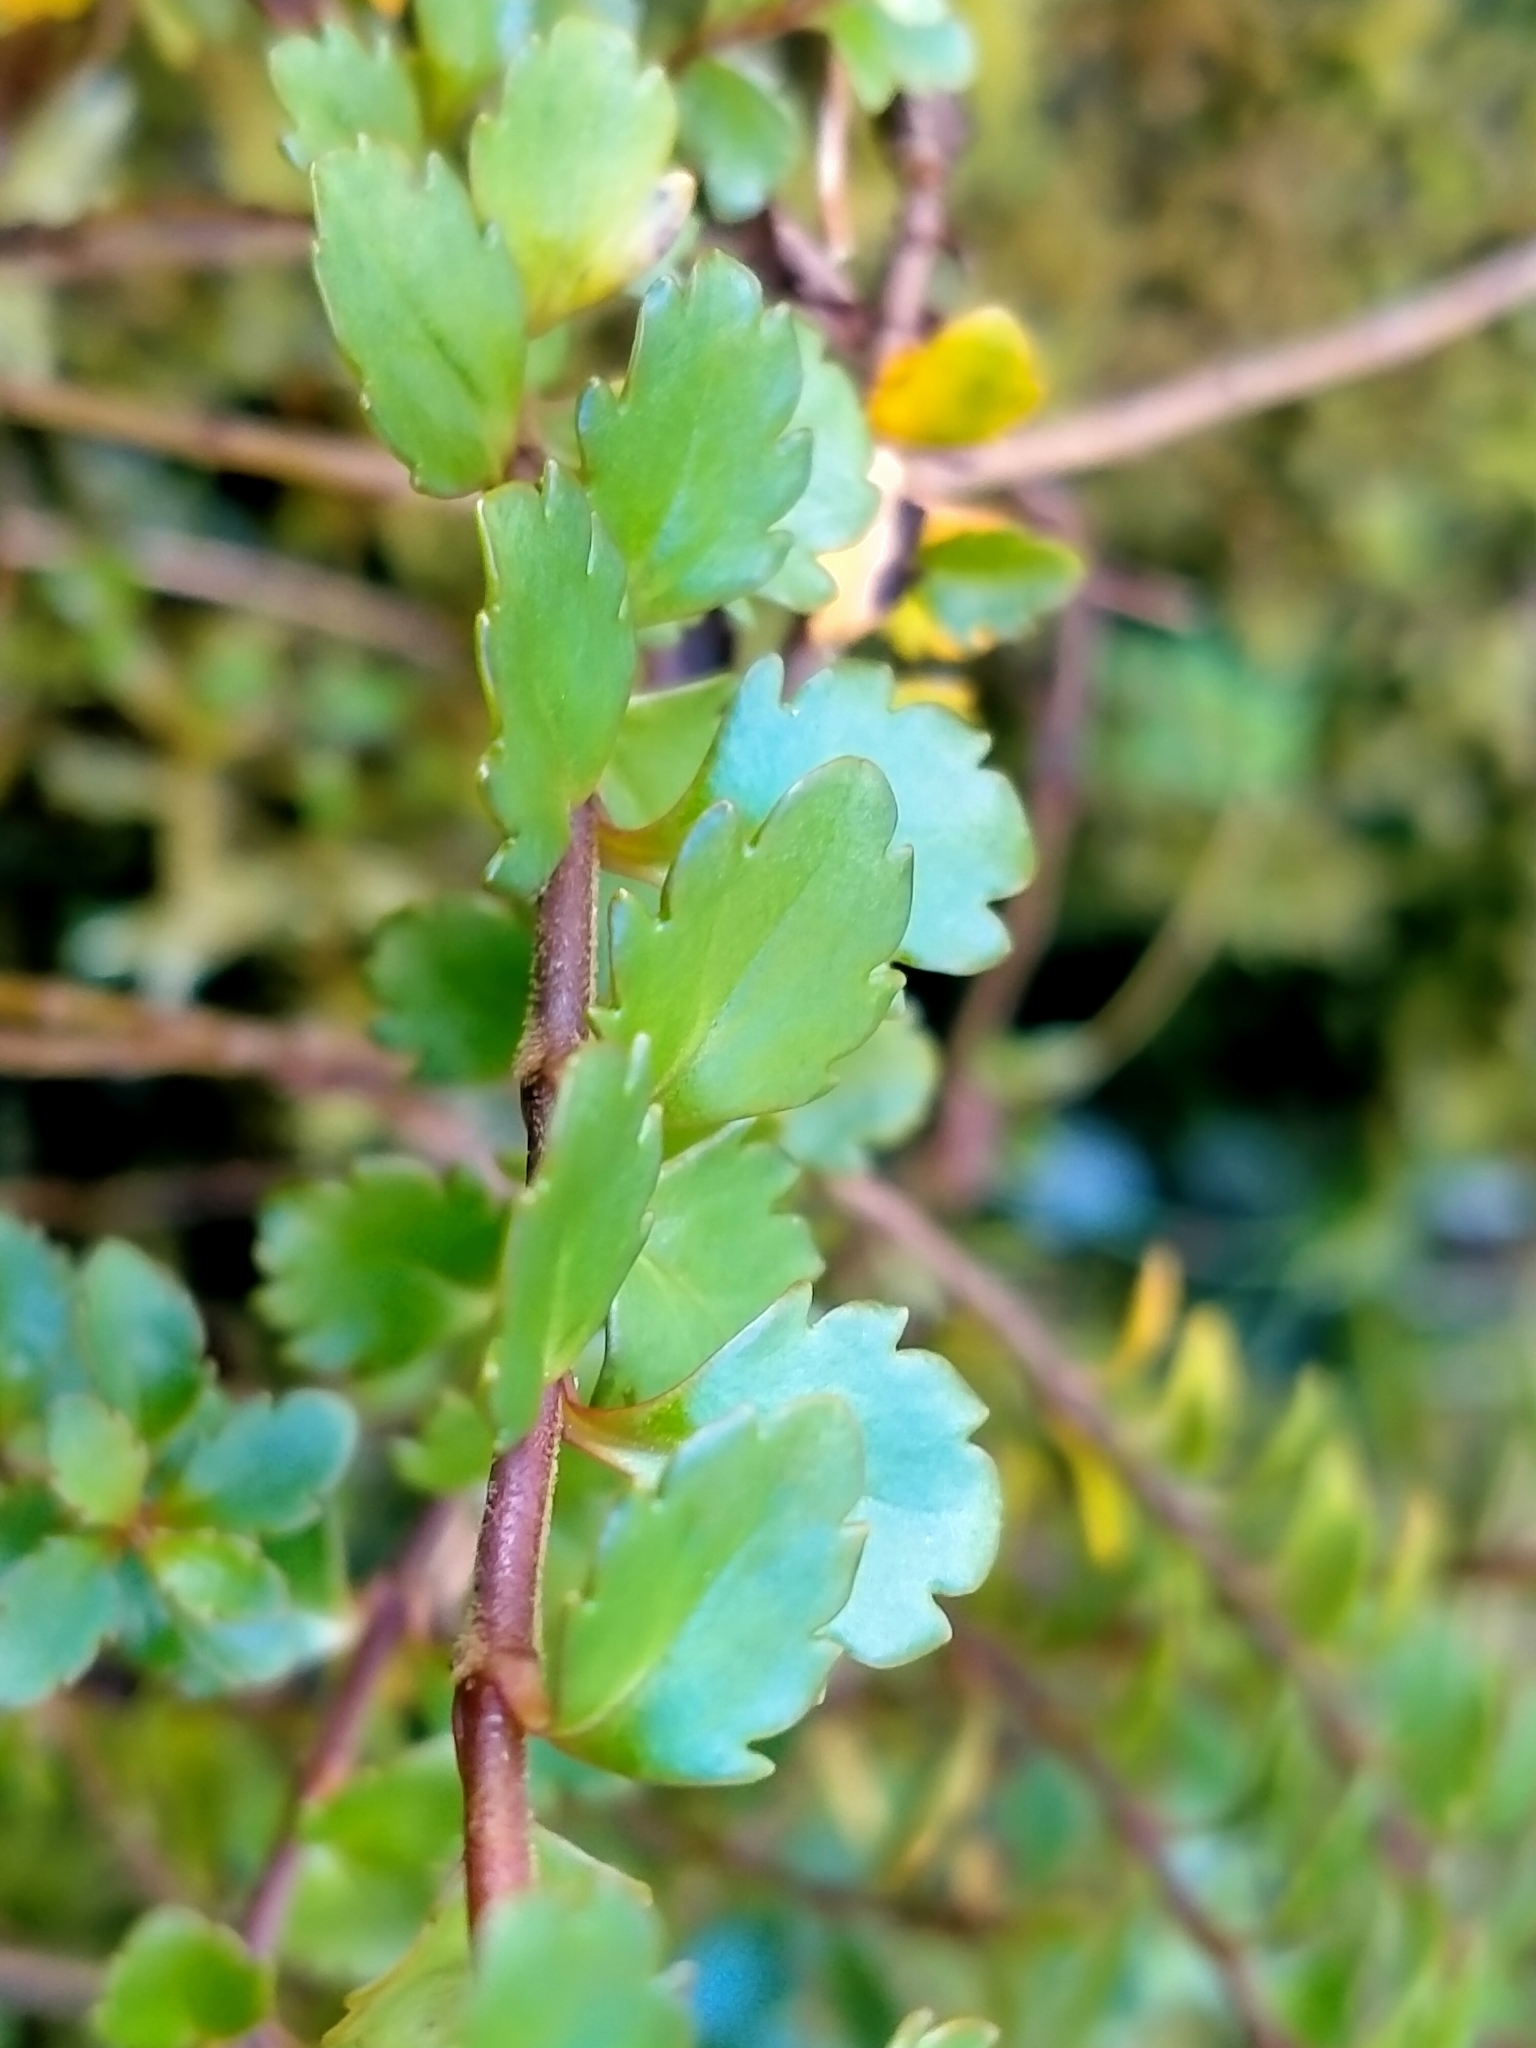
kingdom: Plantae
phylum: Tracheophyta
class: Magnoliopsida
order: Lamiales
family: Plantaginaceae
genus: Veronica
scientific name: Veronica lyallii
